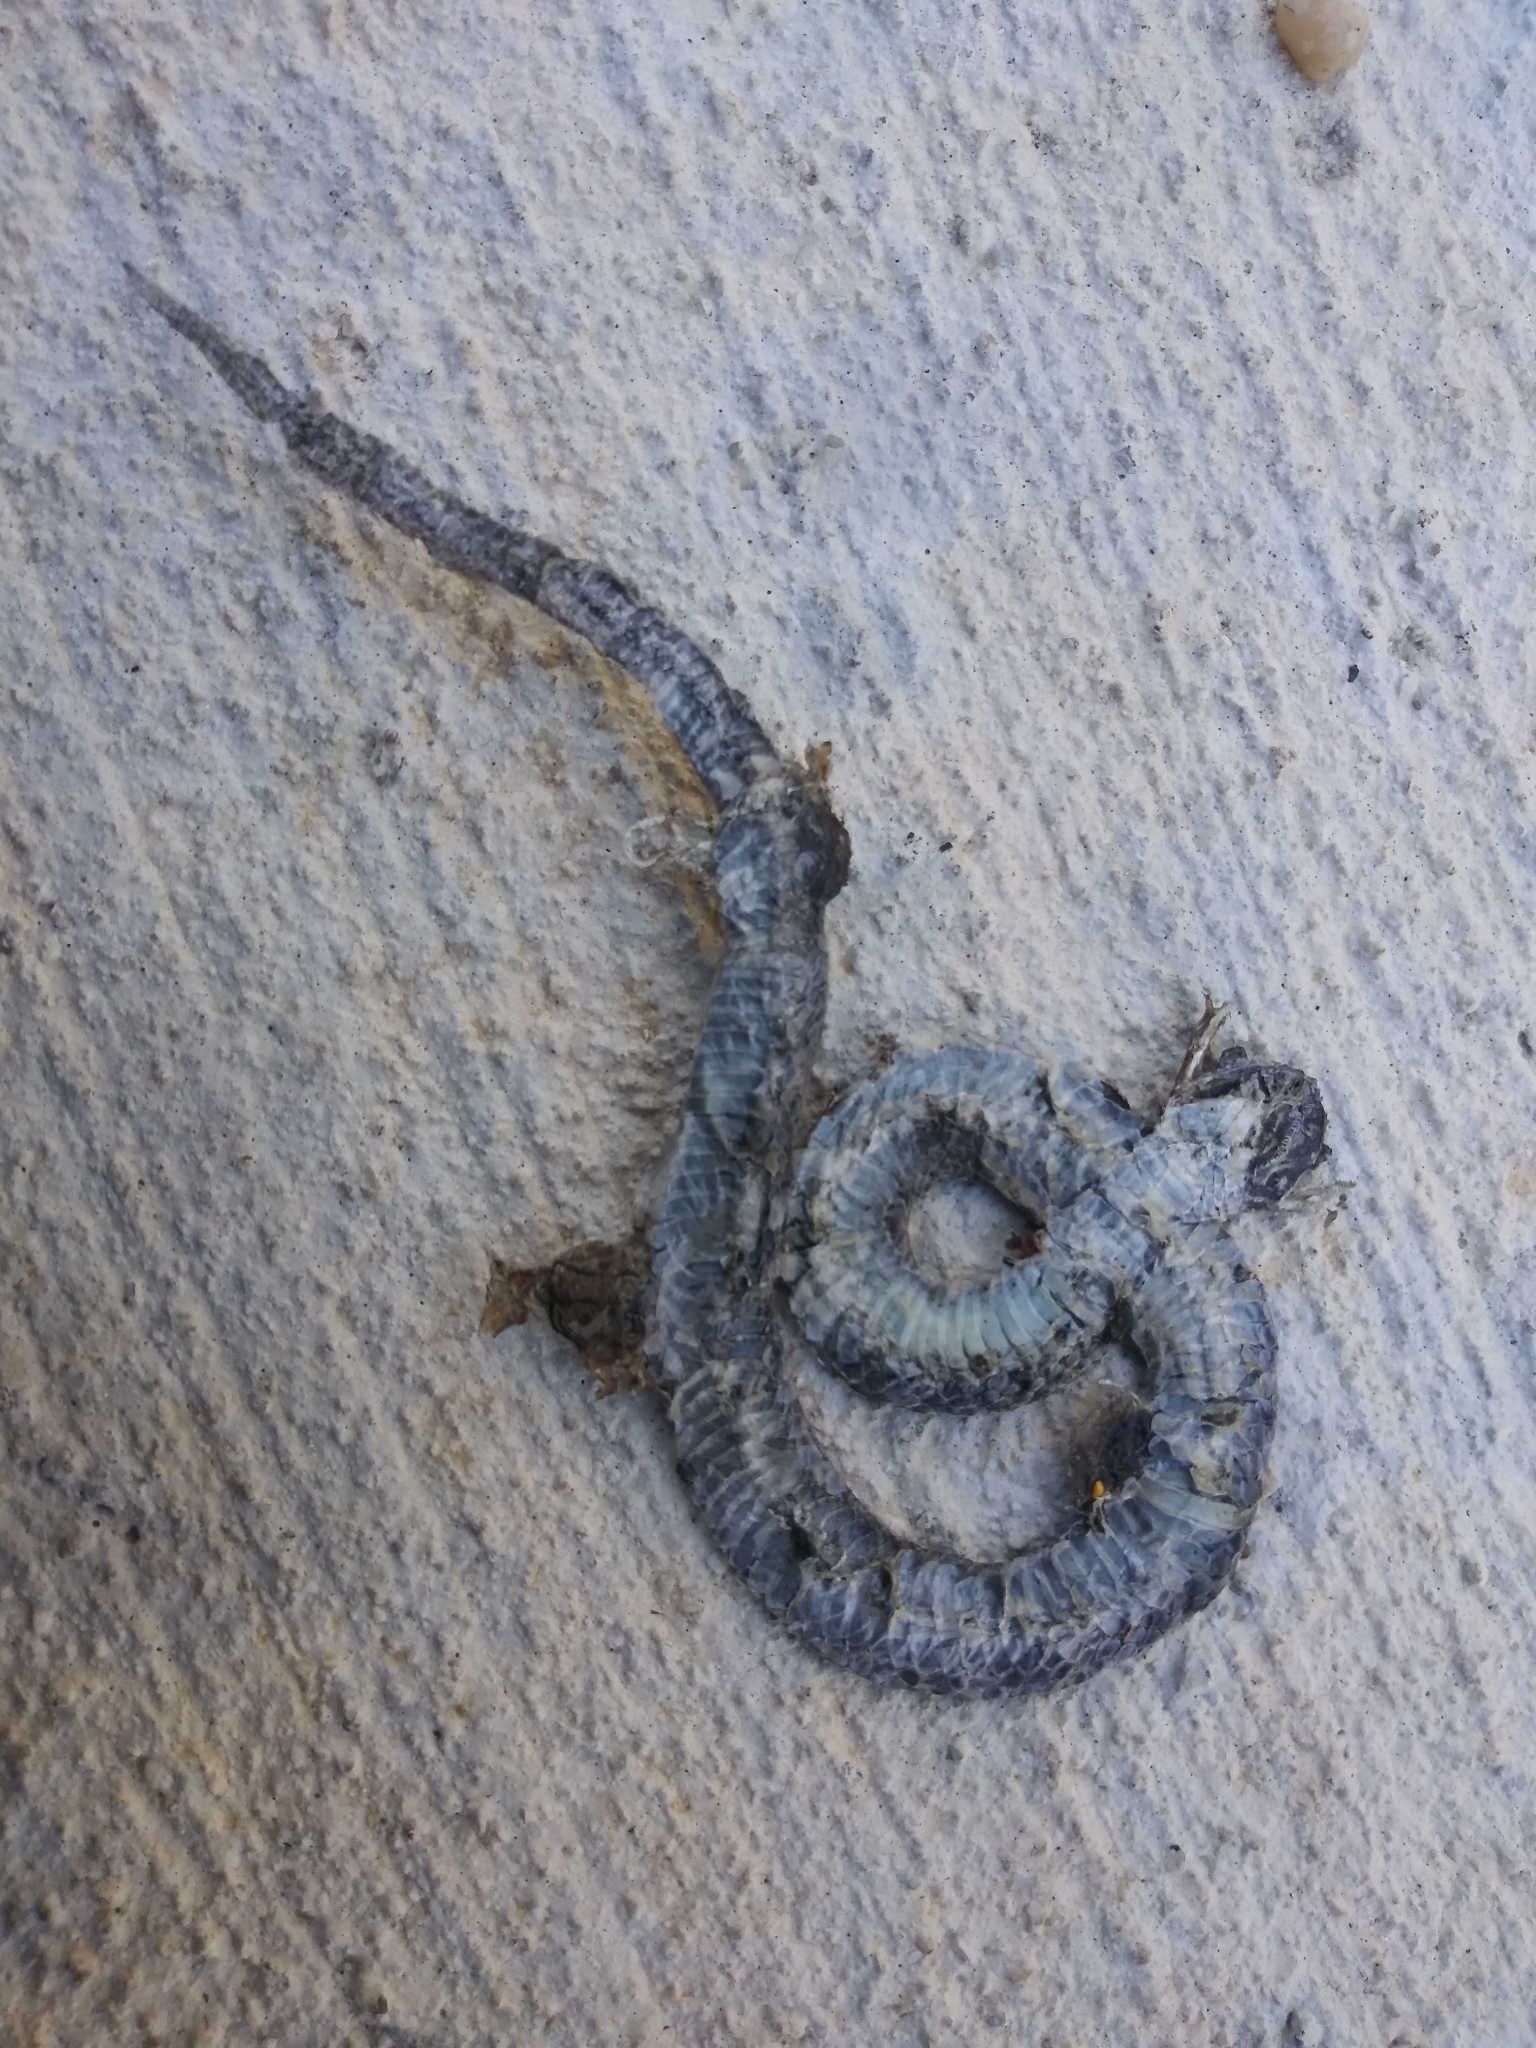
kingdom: Animalia
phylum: Chordata
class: Squamata
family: Colubridae
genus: Storeria
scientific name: Storeria dekayi
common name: (dekay’s) brown snake
